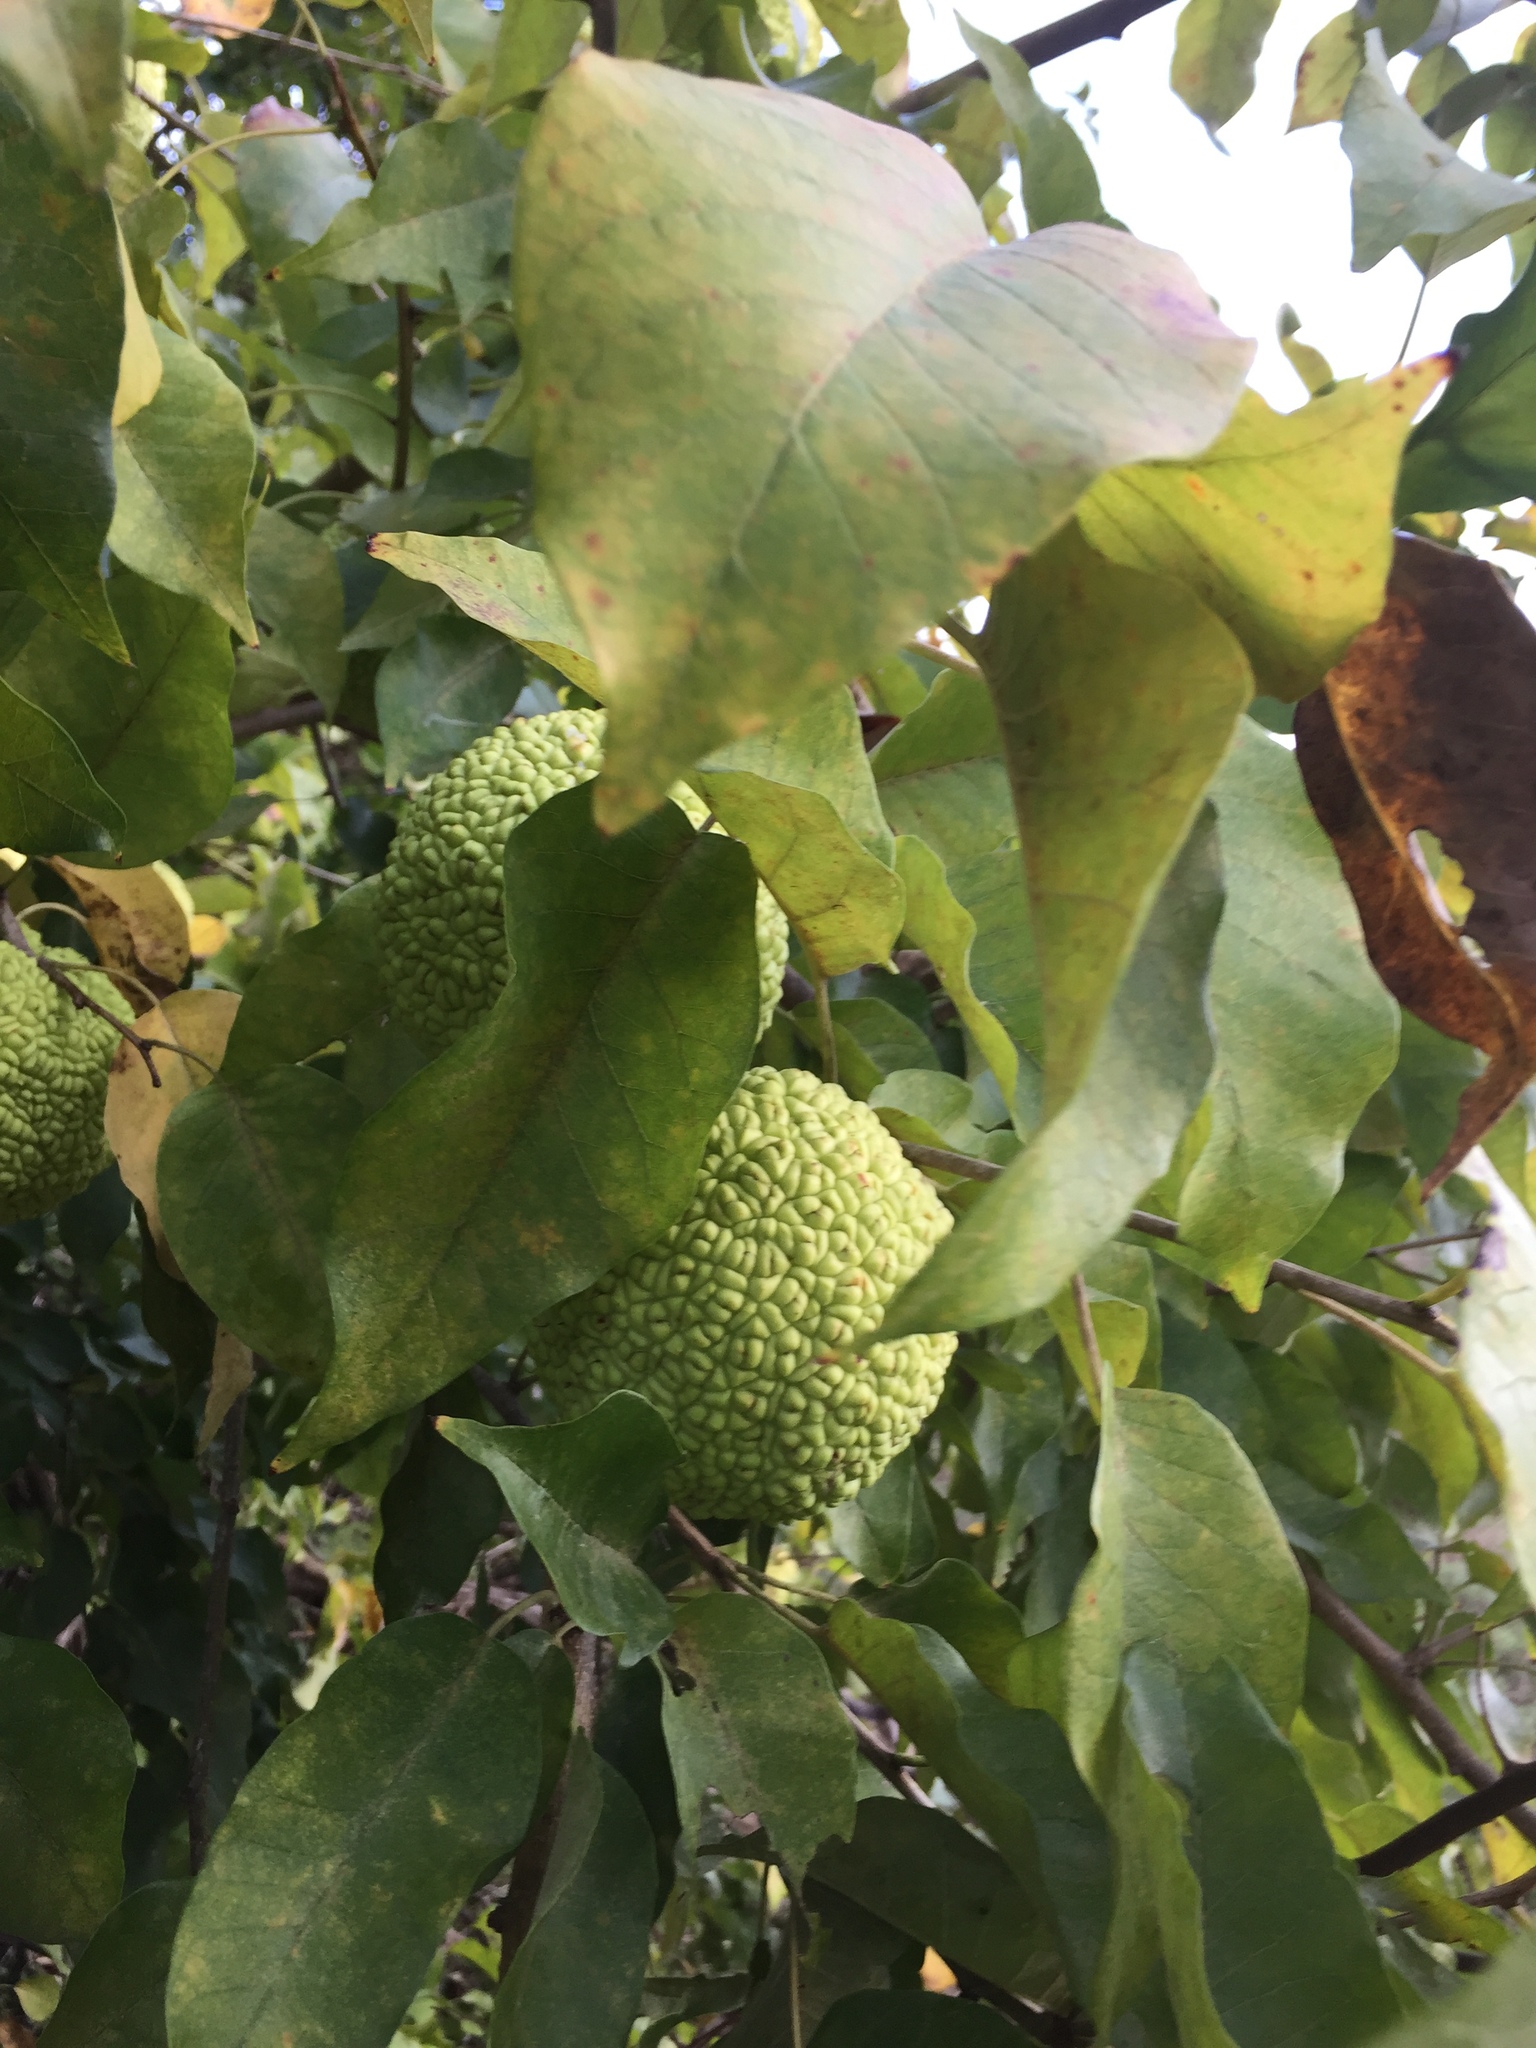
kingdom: Plantae
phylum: Tracheophyta
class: Magnoliopsida
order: Rosales
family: Moraceae
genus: Maclura
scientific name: Maclura pomifera
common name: Osage-orange
